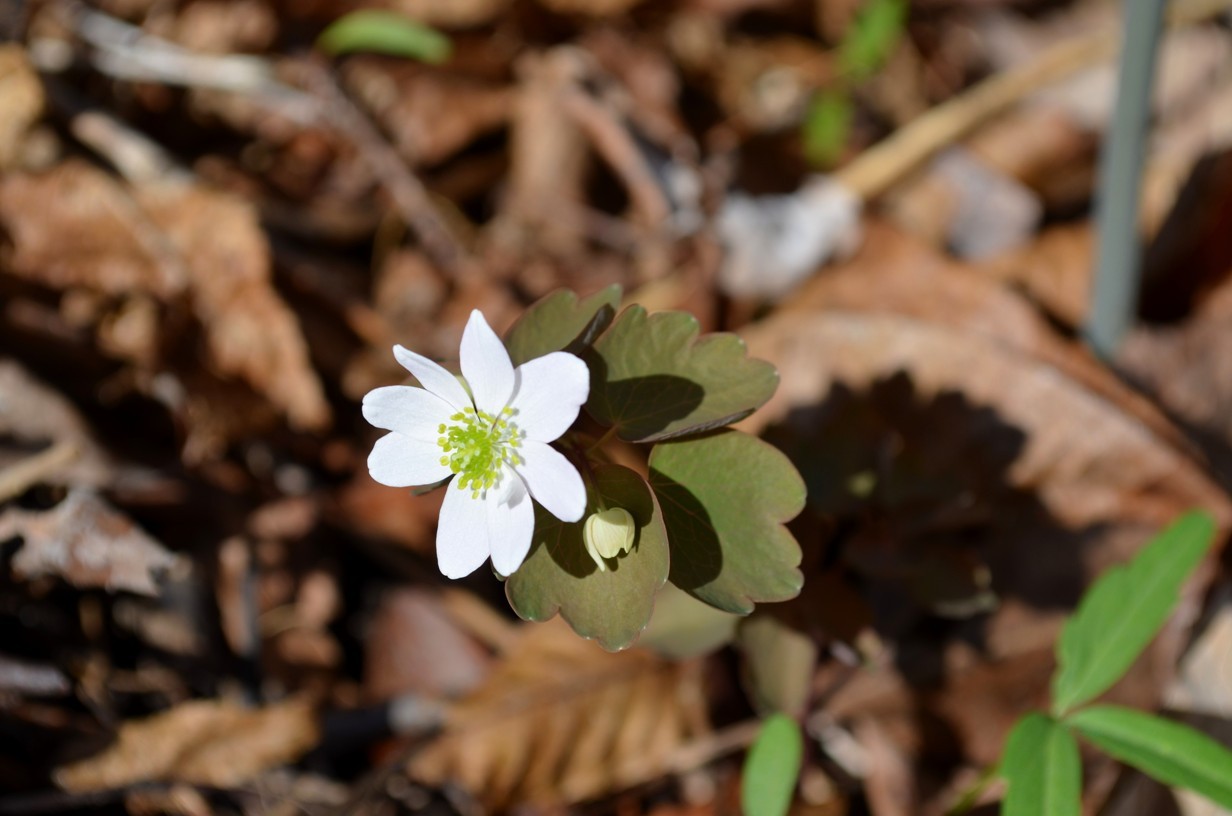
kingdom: Plantae
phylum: Tracheophyta
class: Magnoliopsida
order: Ranunculales
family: Ranunculaceae
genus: Thalictrum
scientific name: Thalictrum thalictroides
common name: Rue-anemone
